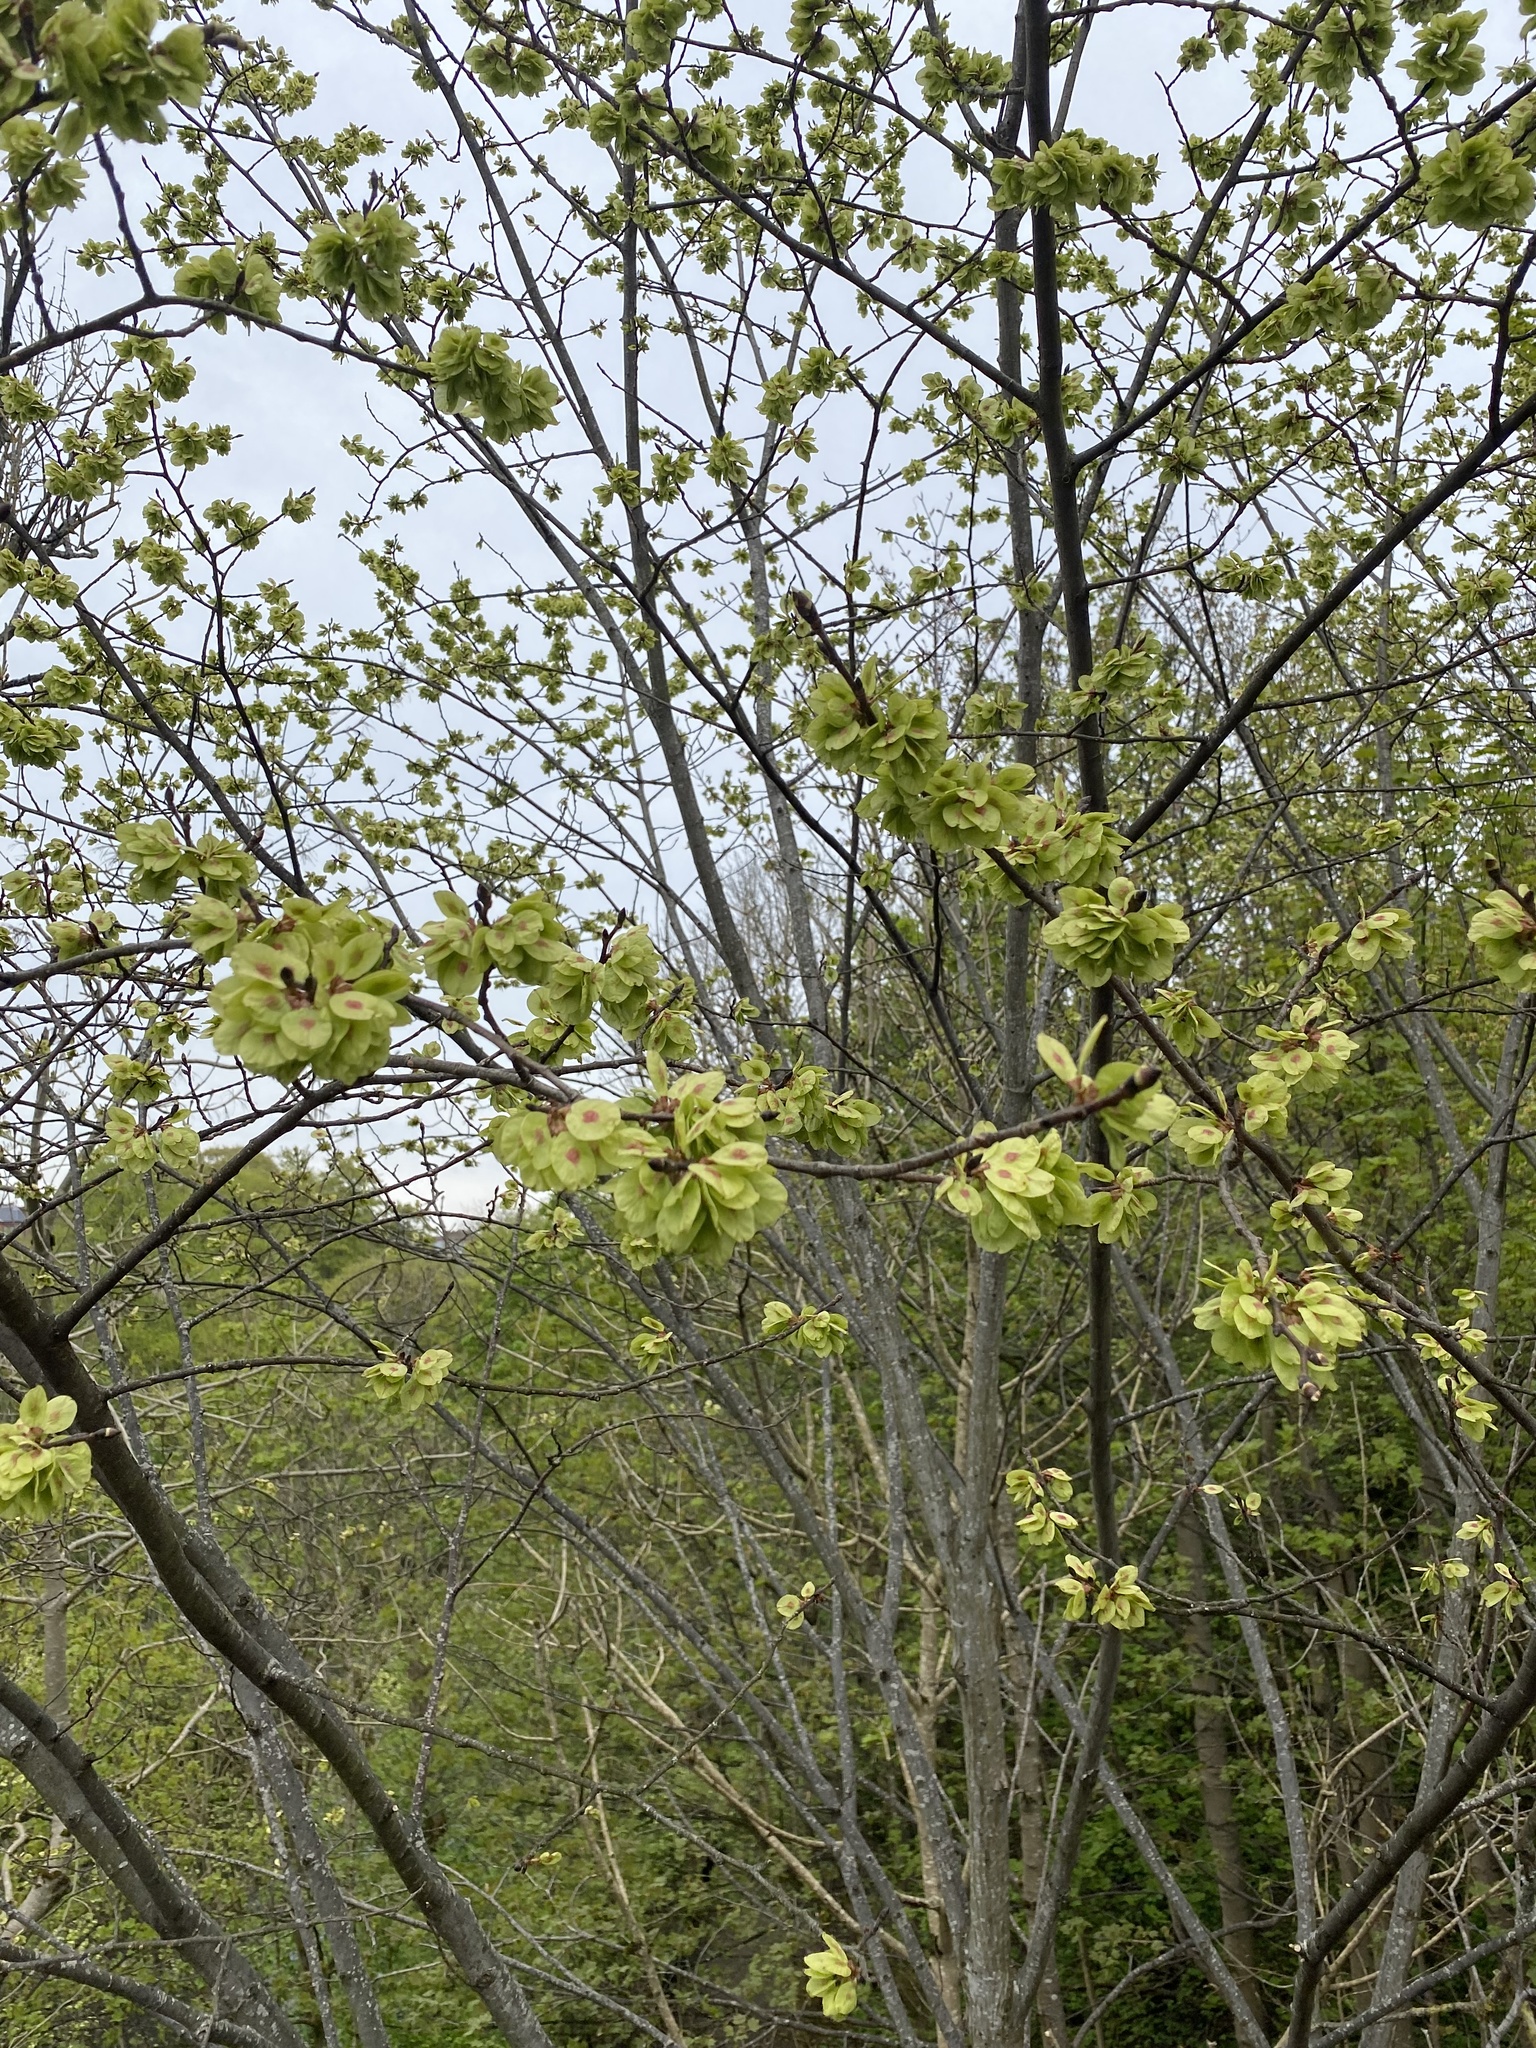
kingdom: Plantae
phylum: Tracheophyta
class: Magnoliopsida
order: Rosales
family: Ulmaceae
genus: Ulmus
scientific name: Ulmus glabra
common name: Wych elm
